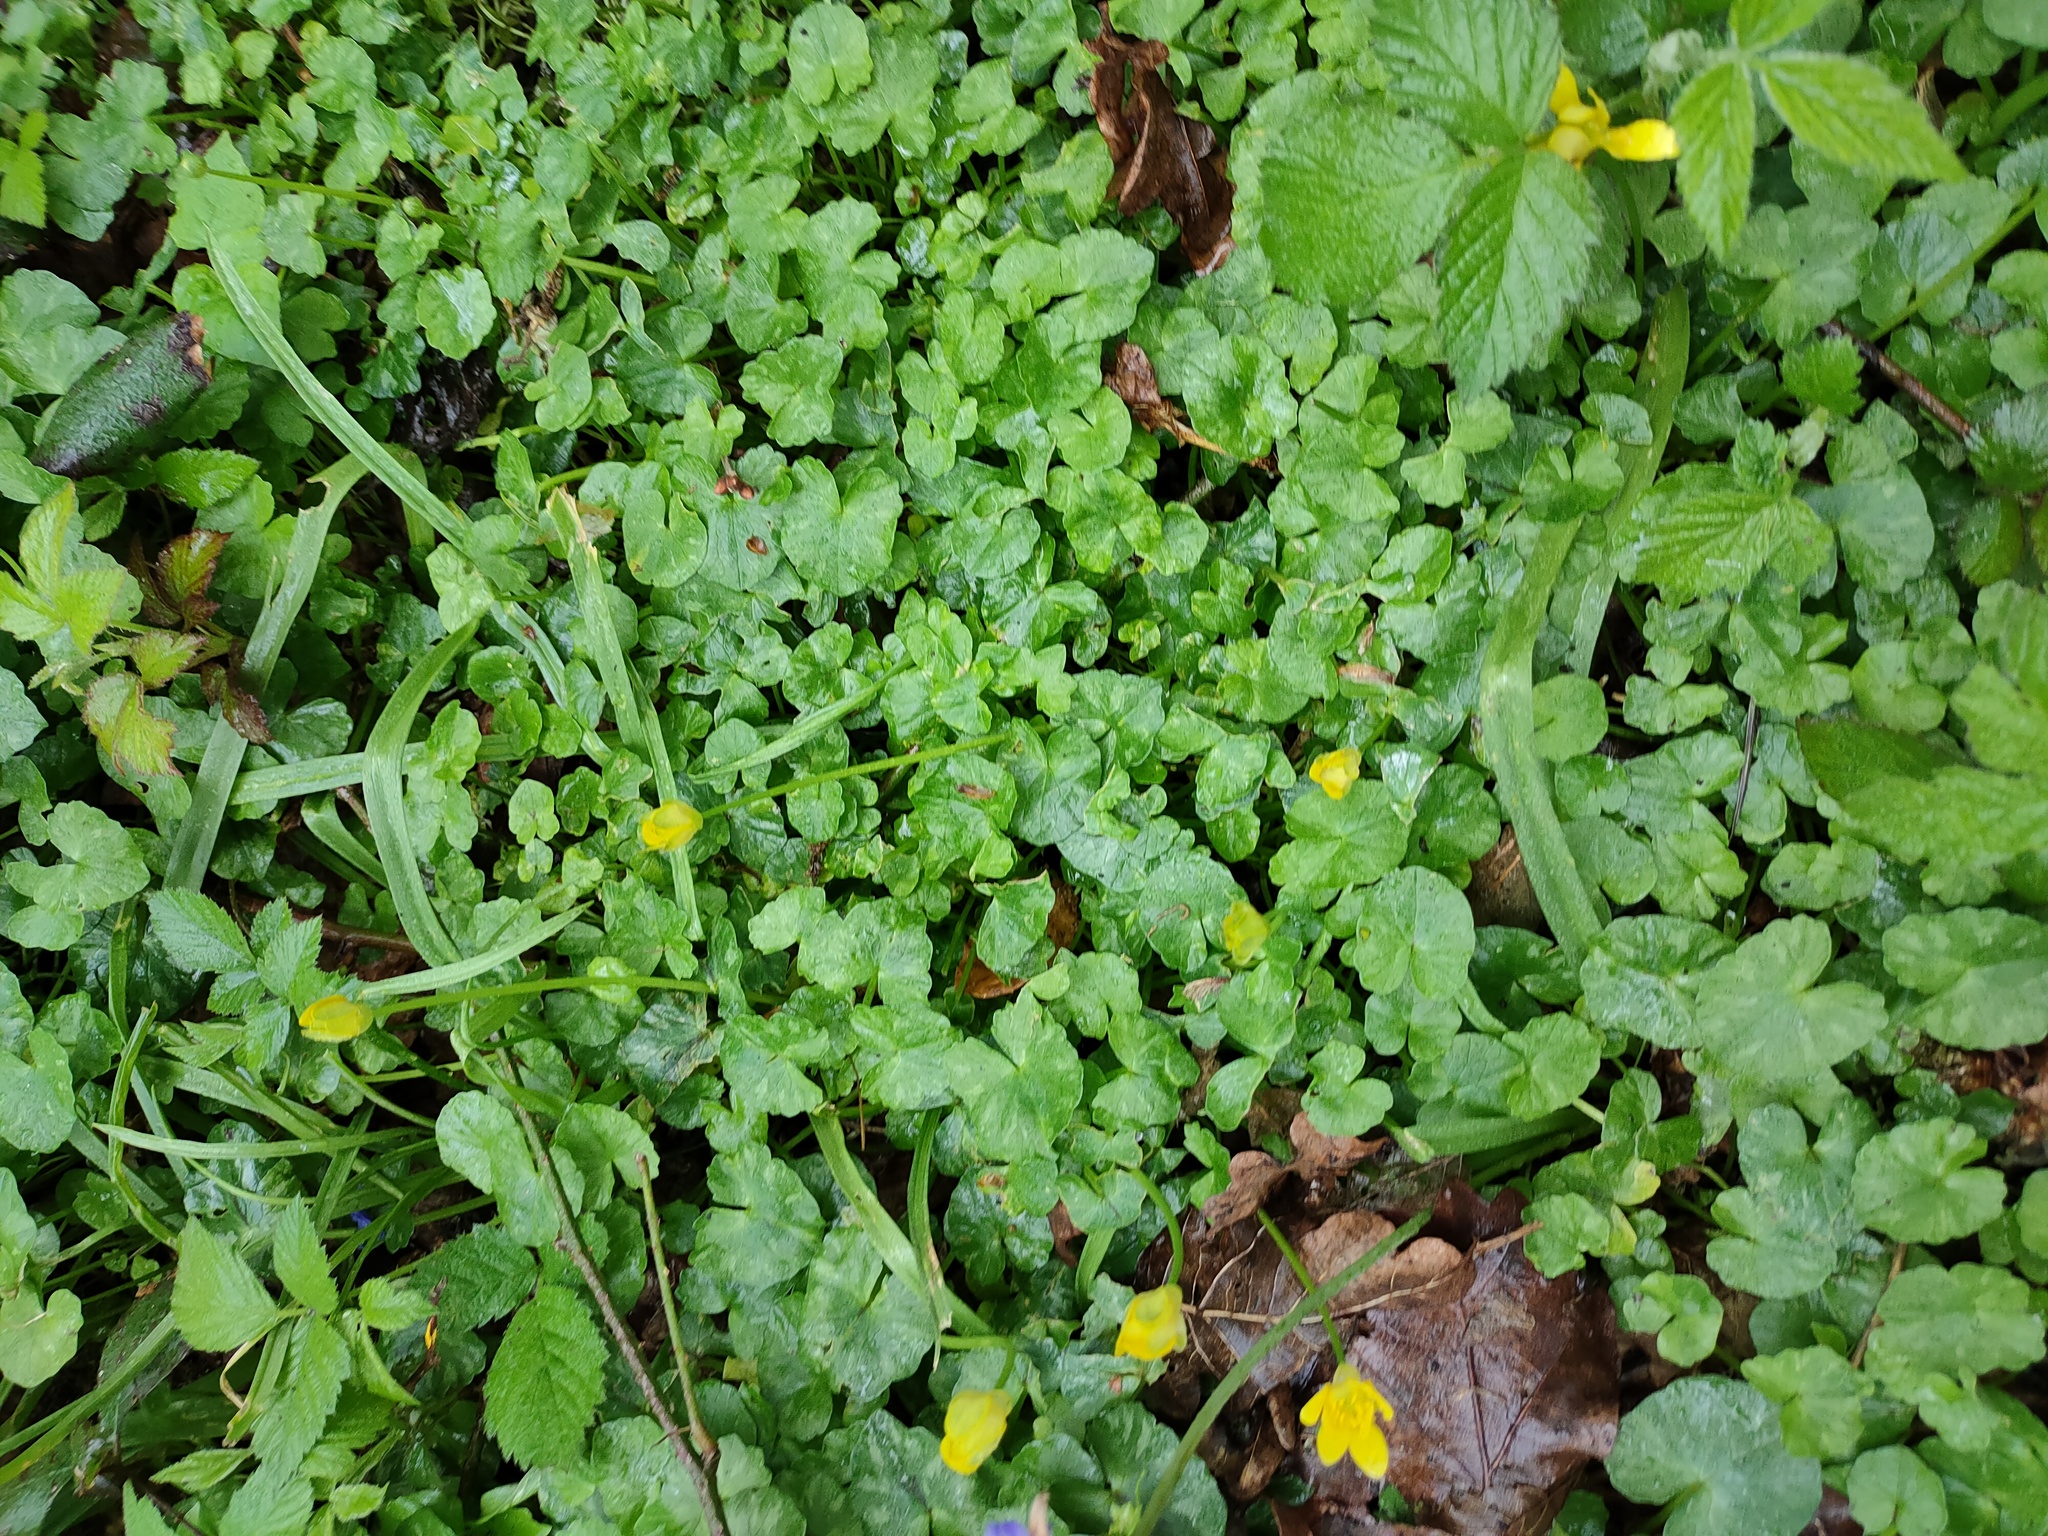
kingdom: Plantae
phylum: Tracheophyta
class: Magnoliopsida
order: Ranunculales
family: Ranunculaceae
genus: Ficaria
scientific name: Ficaria verna
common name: Lesser celandine
